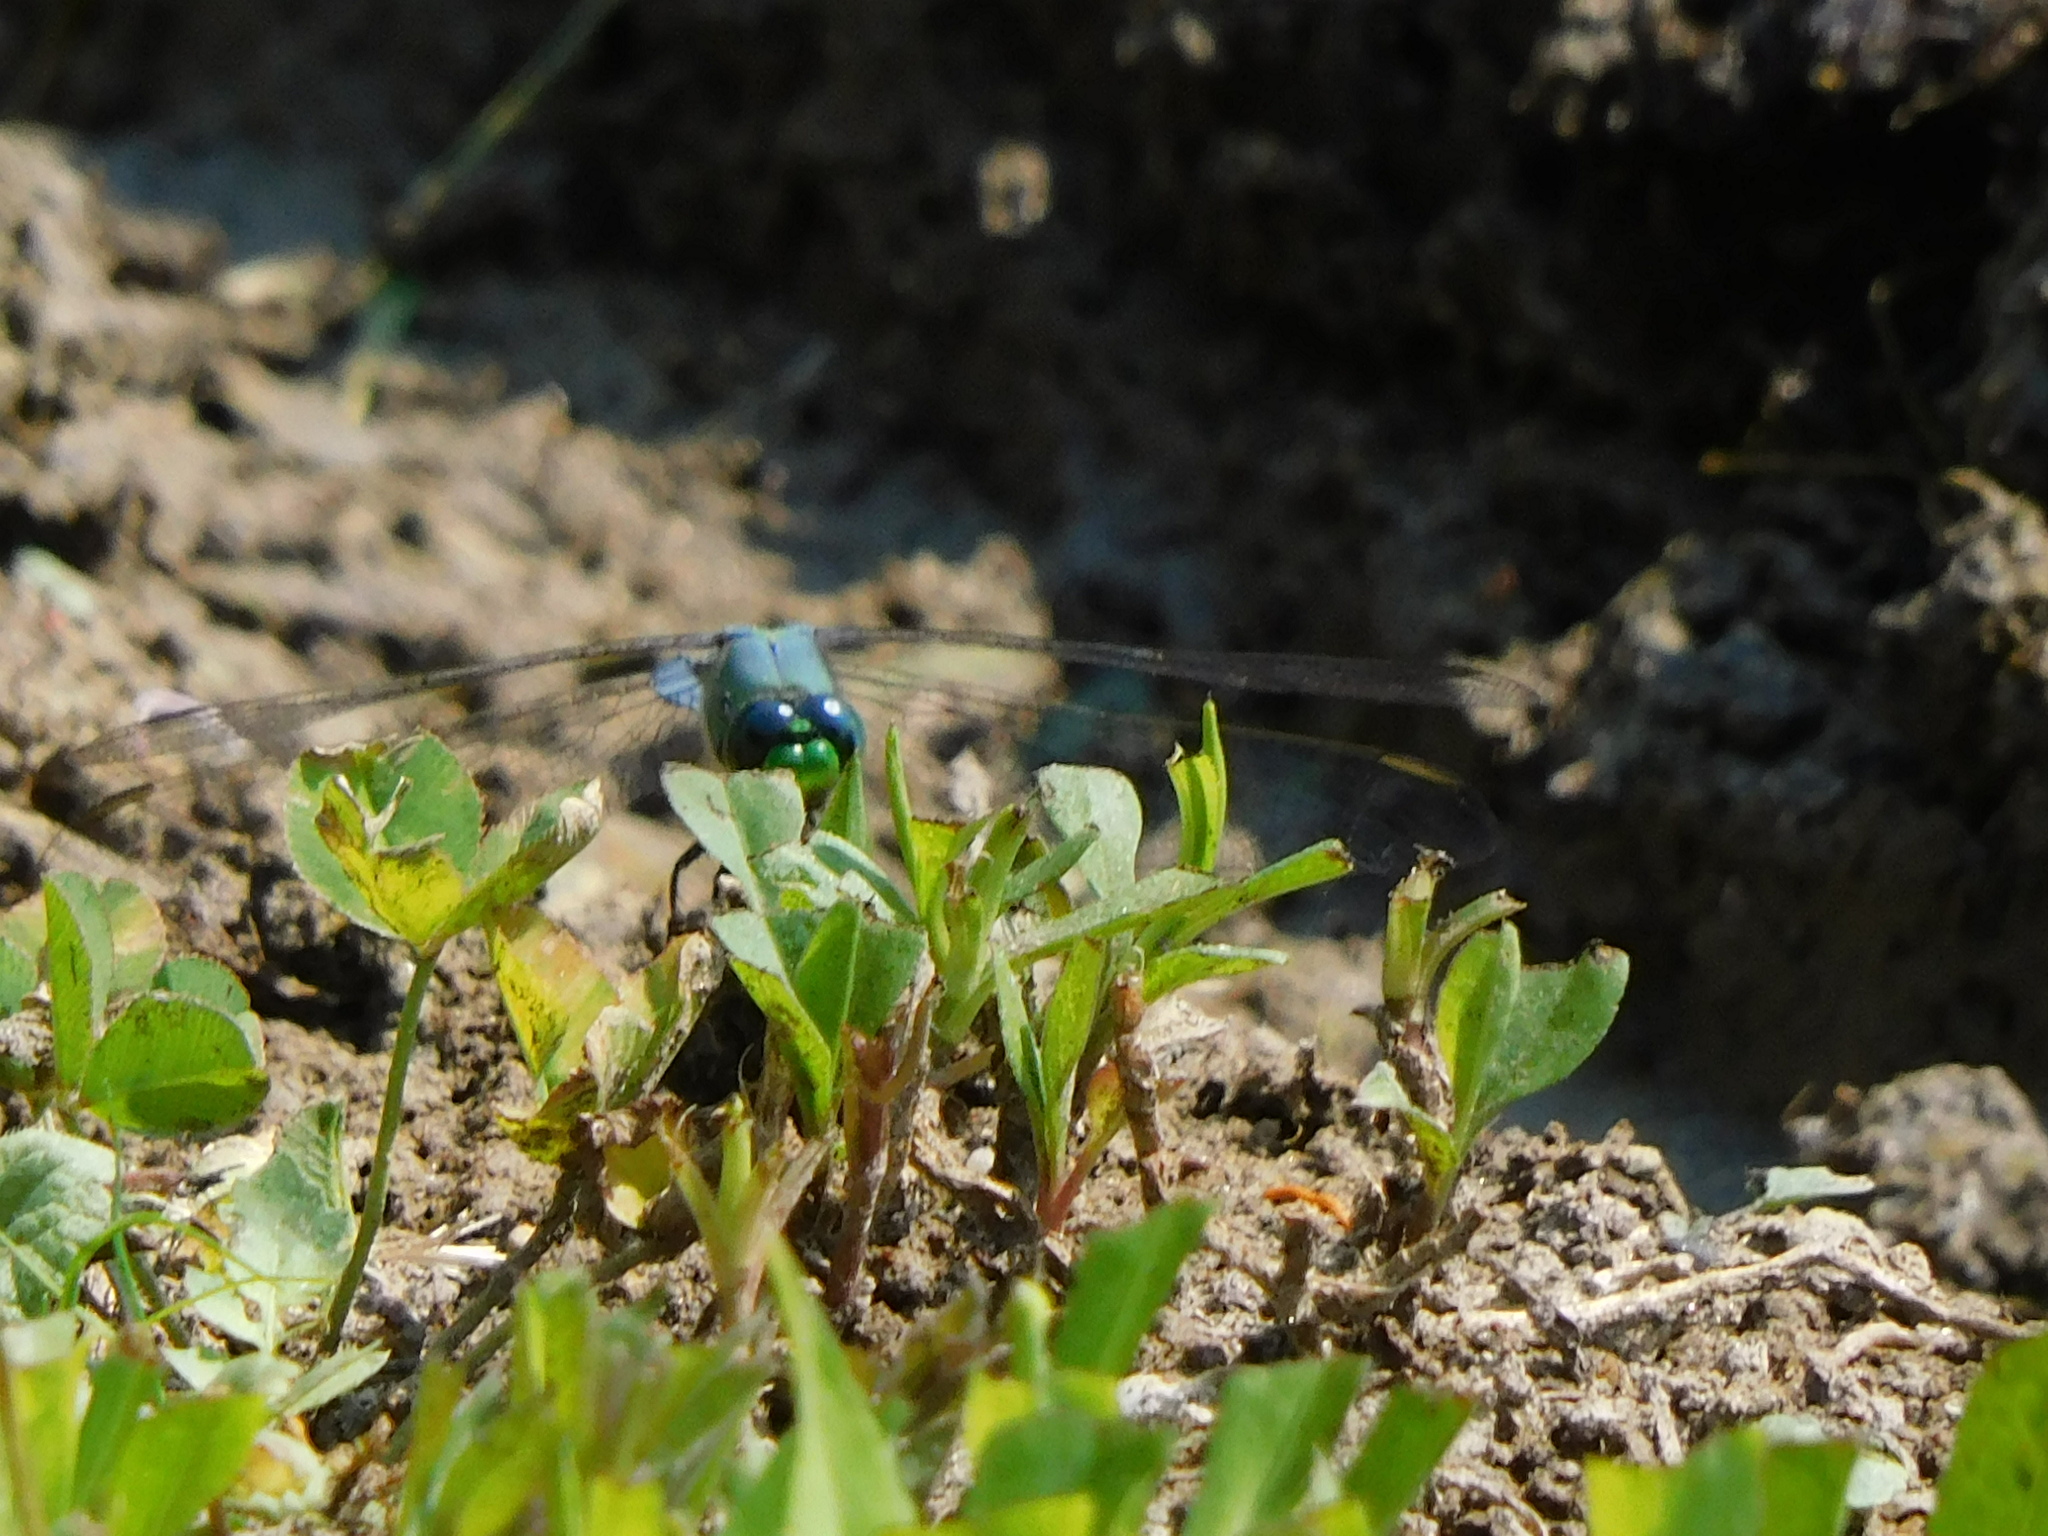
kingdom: Animalia
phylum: Arthropoda
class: Insecta
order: Odonata
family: Libellulidae
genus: Erythemis
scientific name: Erythemis simplicicollis
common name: Eastern pondhawk
